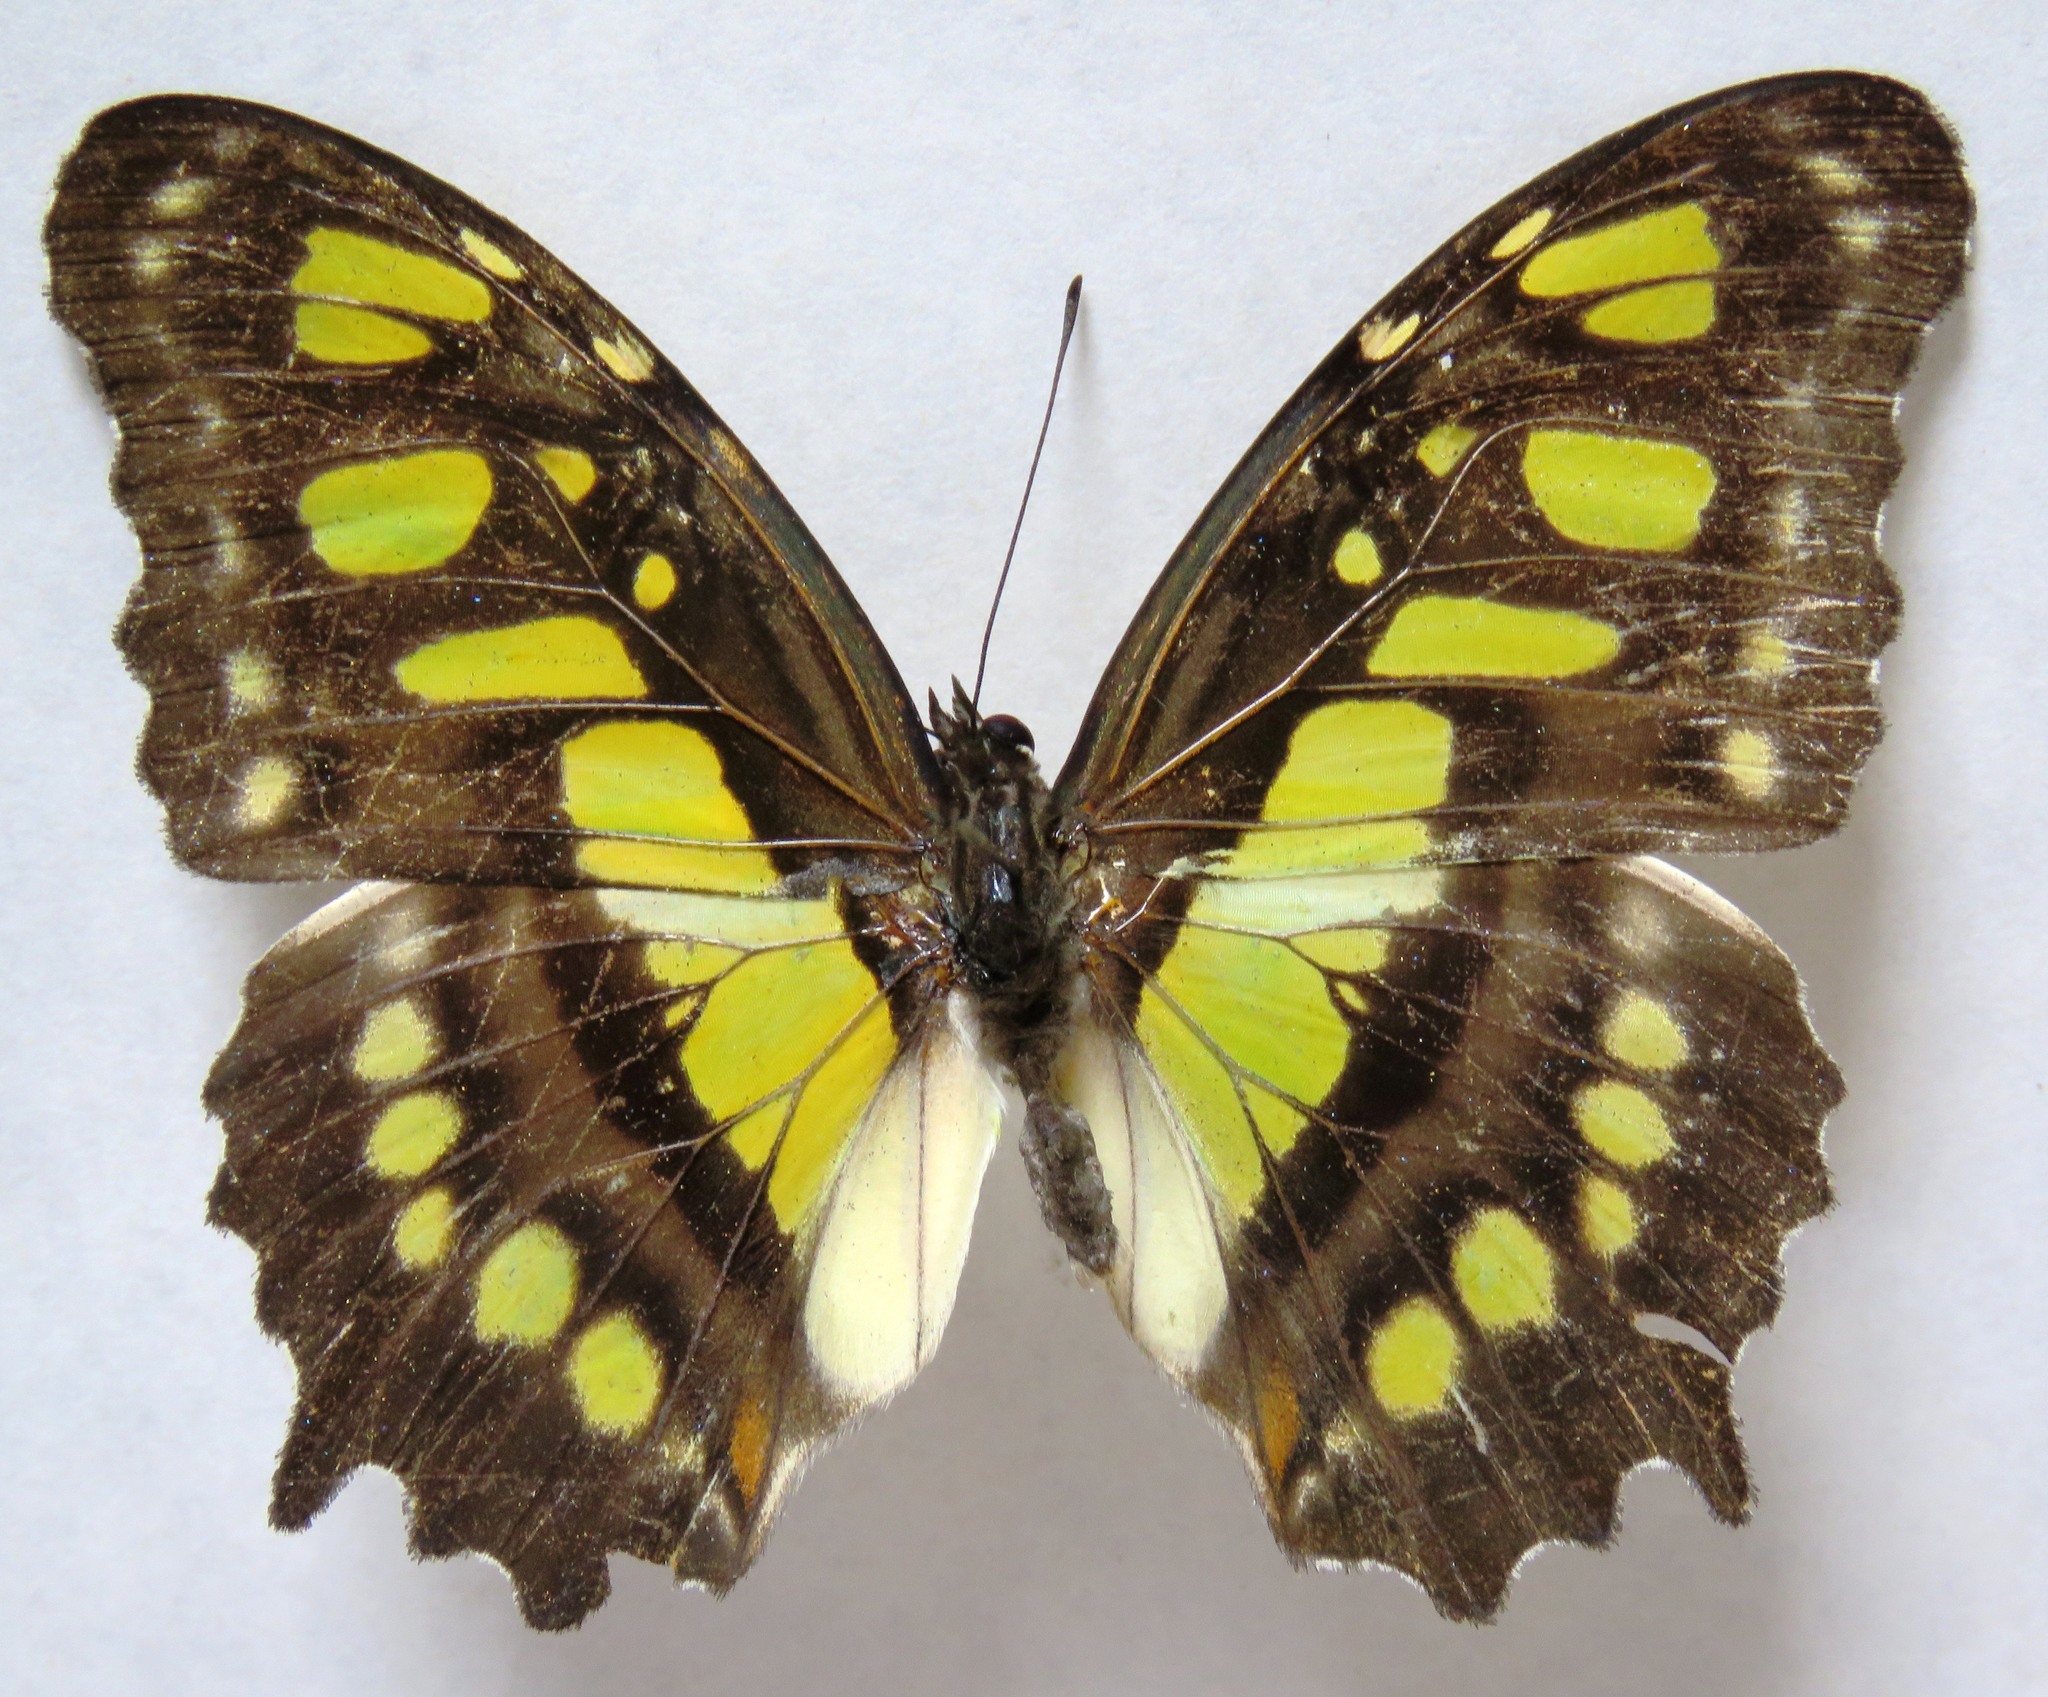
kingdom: Animalia
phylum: Arthropoda
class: Insecta
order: Lepidoptera
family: Nymphalidae
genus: Siproeta
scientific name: Siproeta stelenes
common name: Malachite
